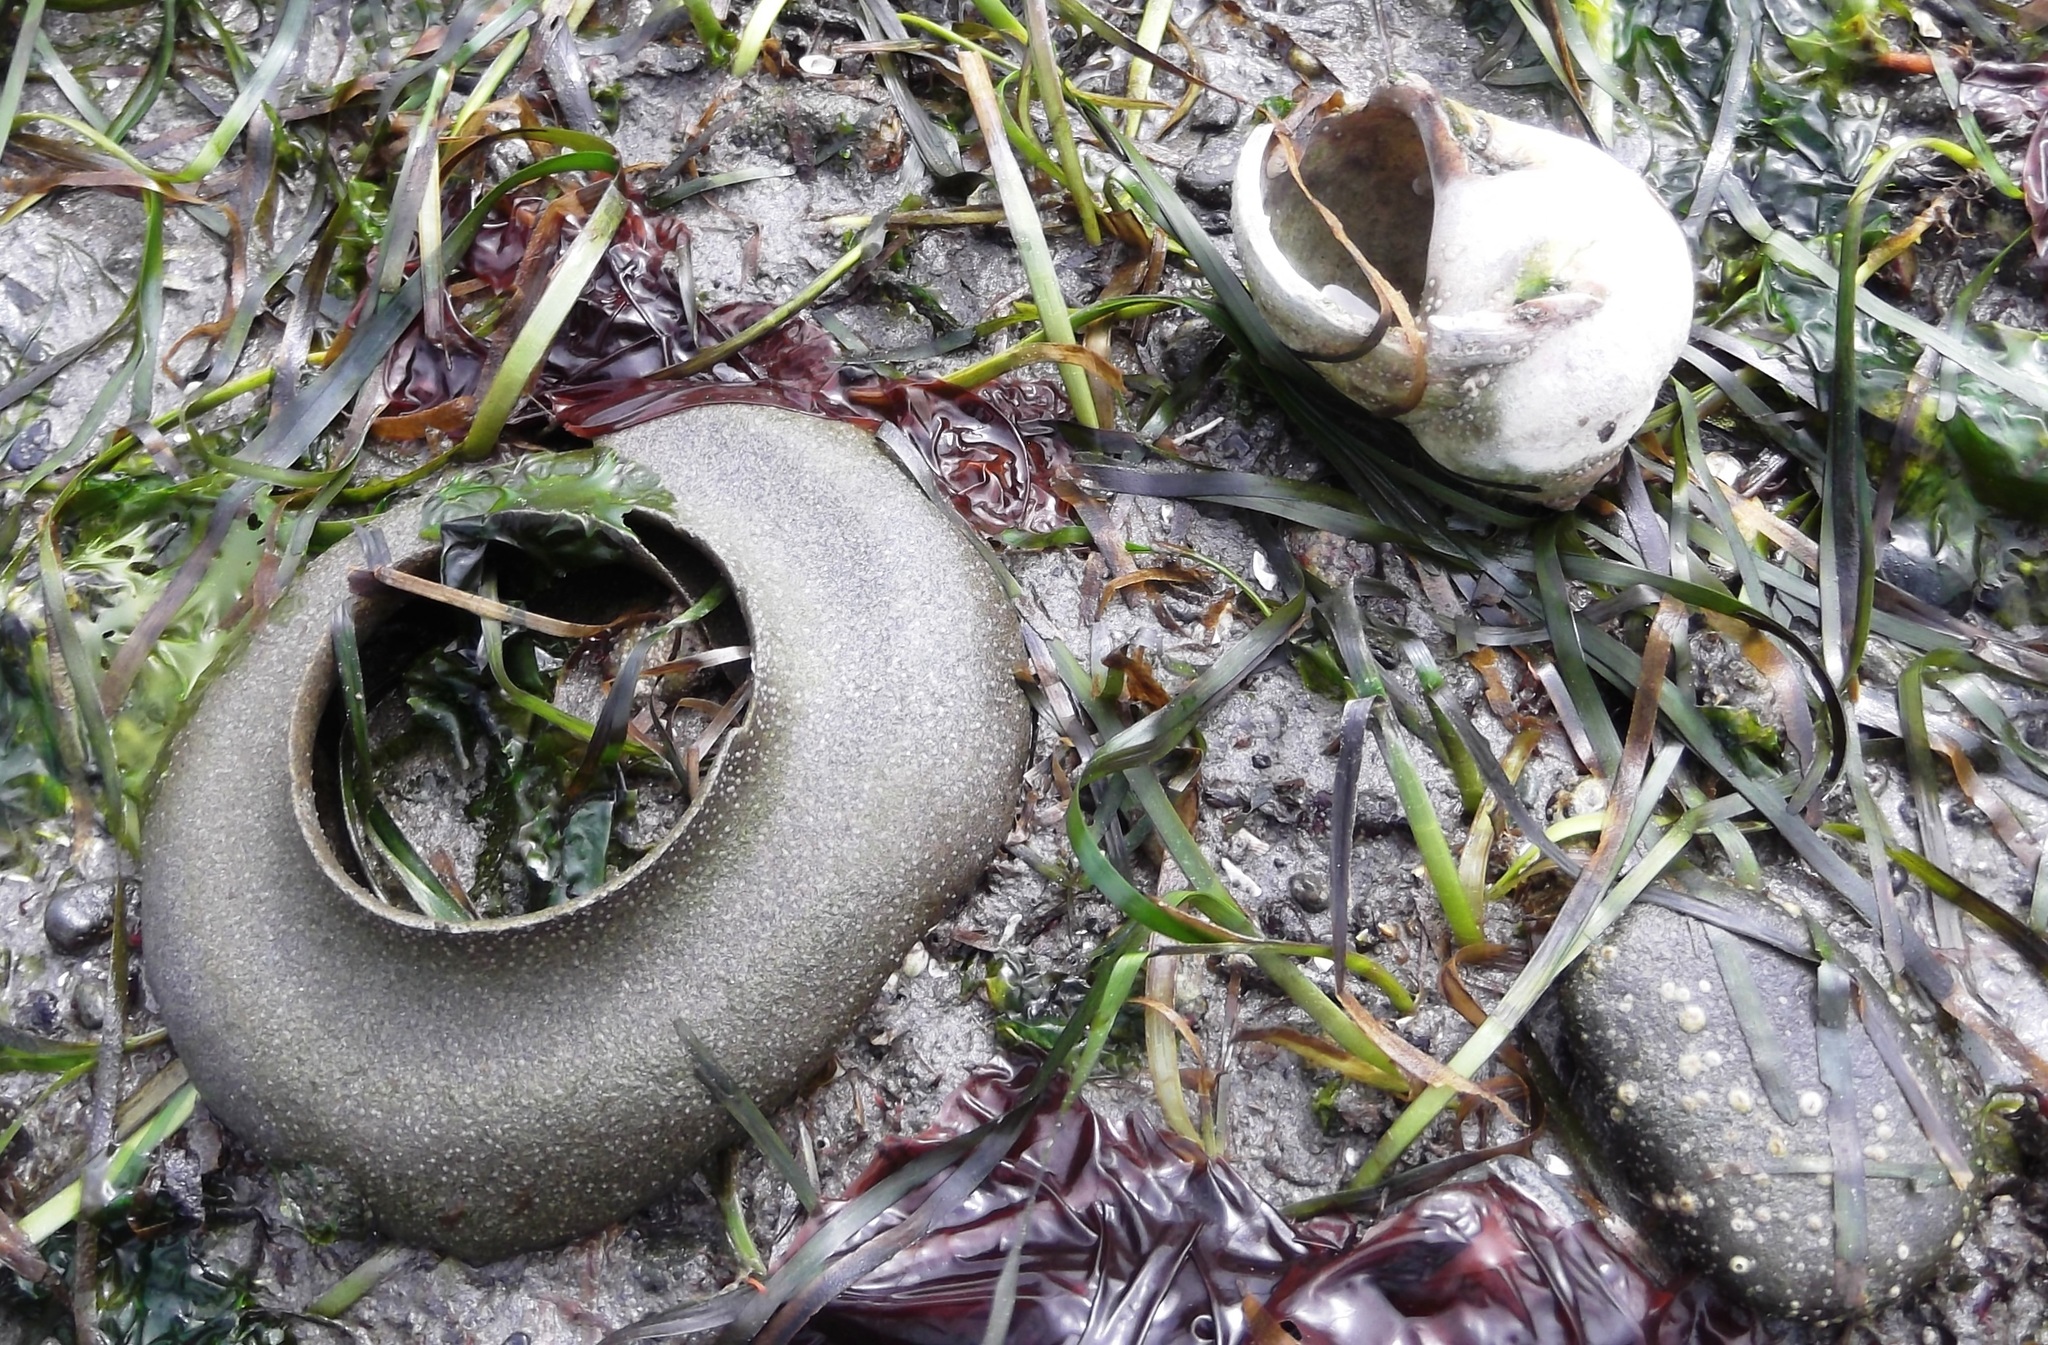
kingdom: Animalia
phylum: Mollusca
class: Gastropoda
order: Littorinimorpha
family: Naticidae
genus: Neverita
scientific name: Neverita lewisii
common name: Lewis' moonsnail
